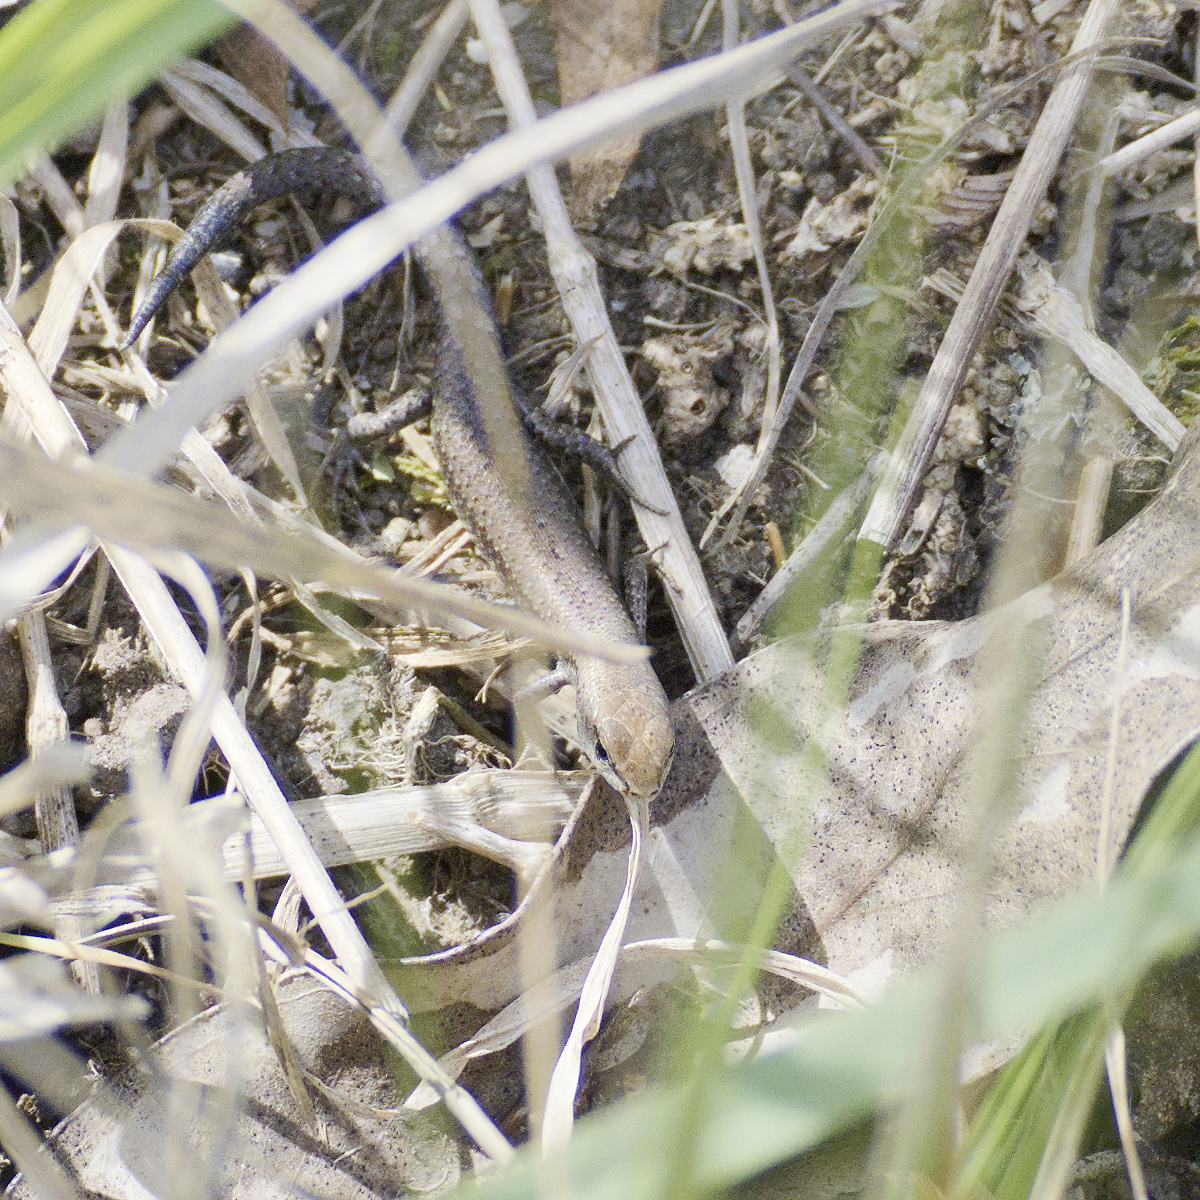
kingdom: Animalia
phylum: Chordata
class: Squamata
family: Scincidae
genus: Lampropholis
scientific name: Lampropholis guichenoti
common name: Garden skink
